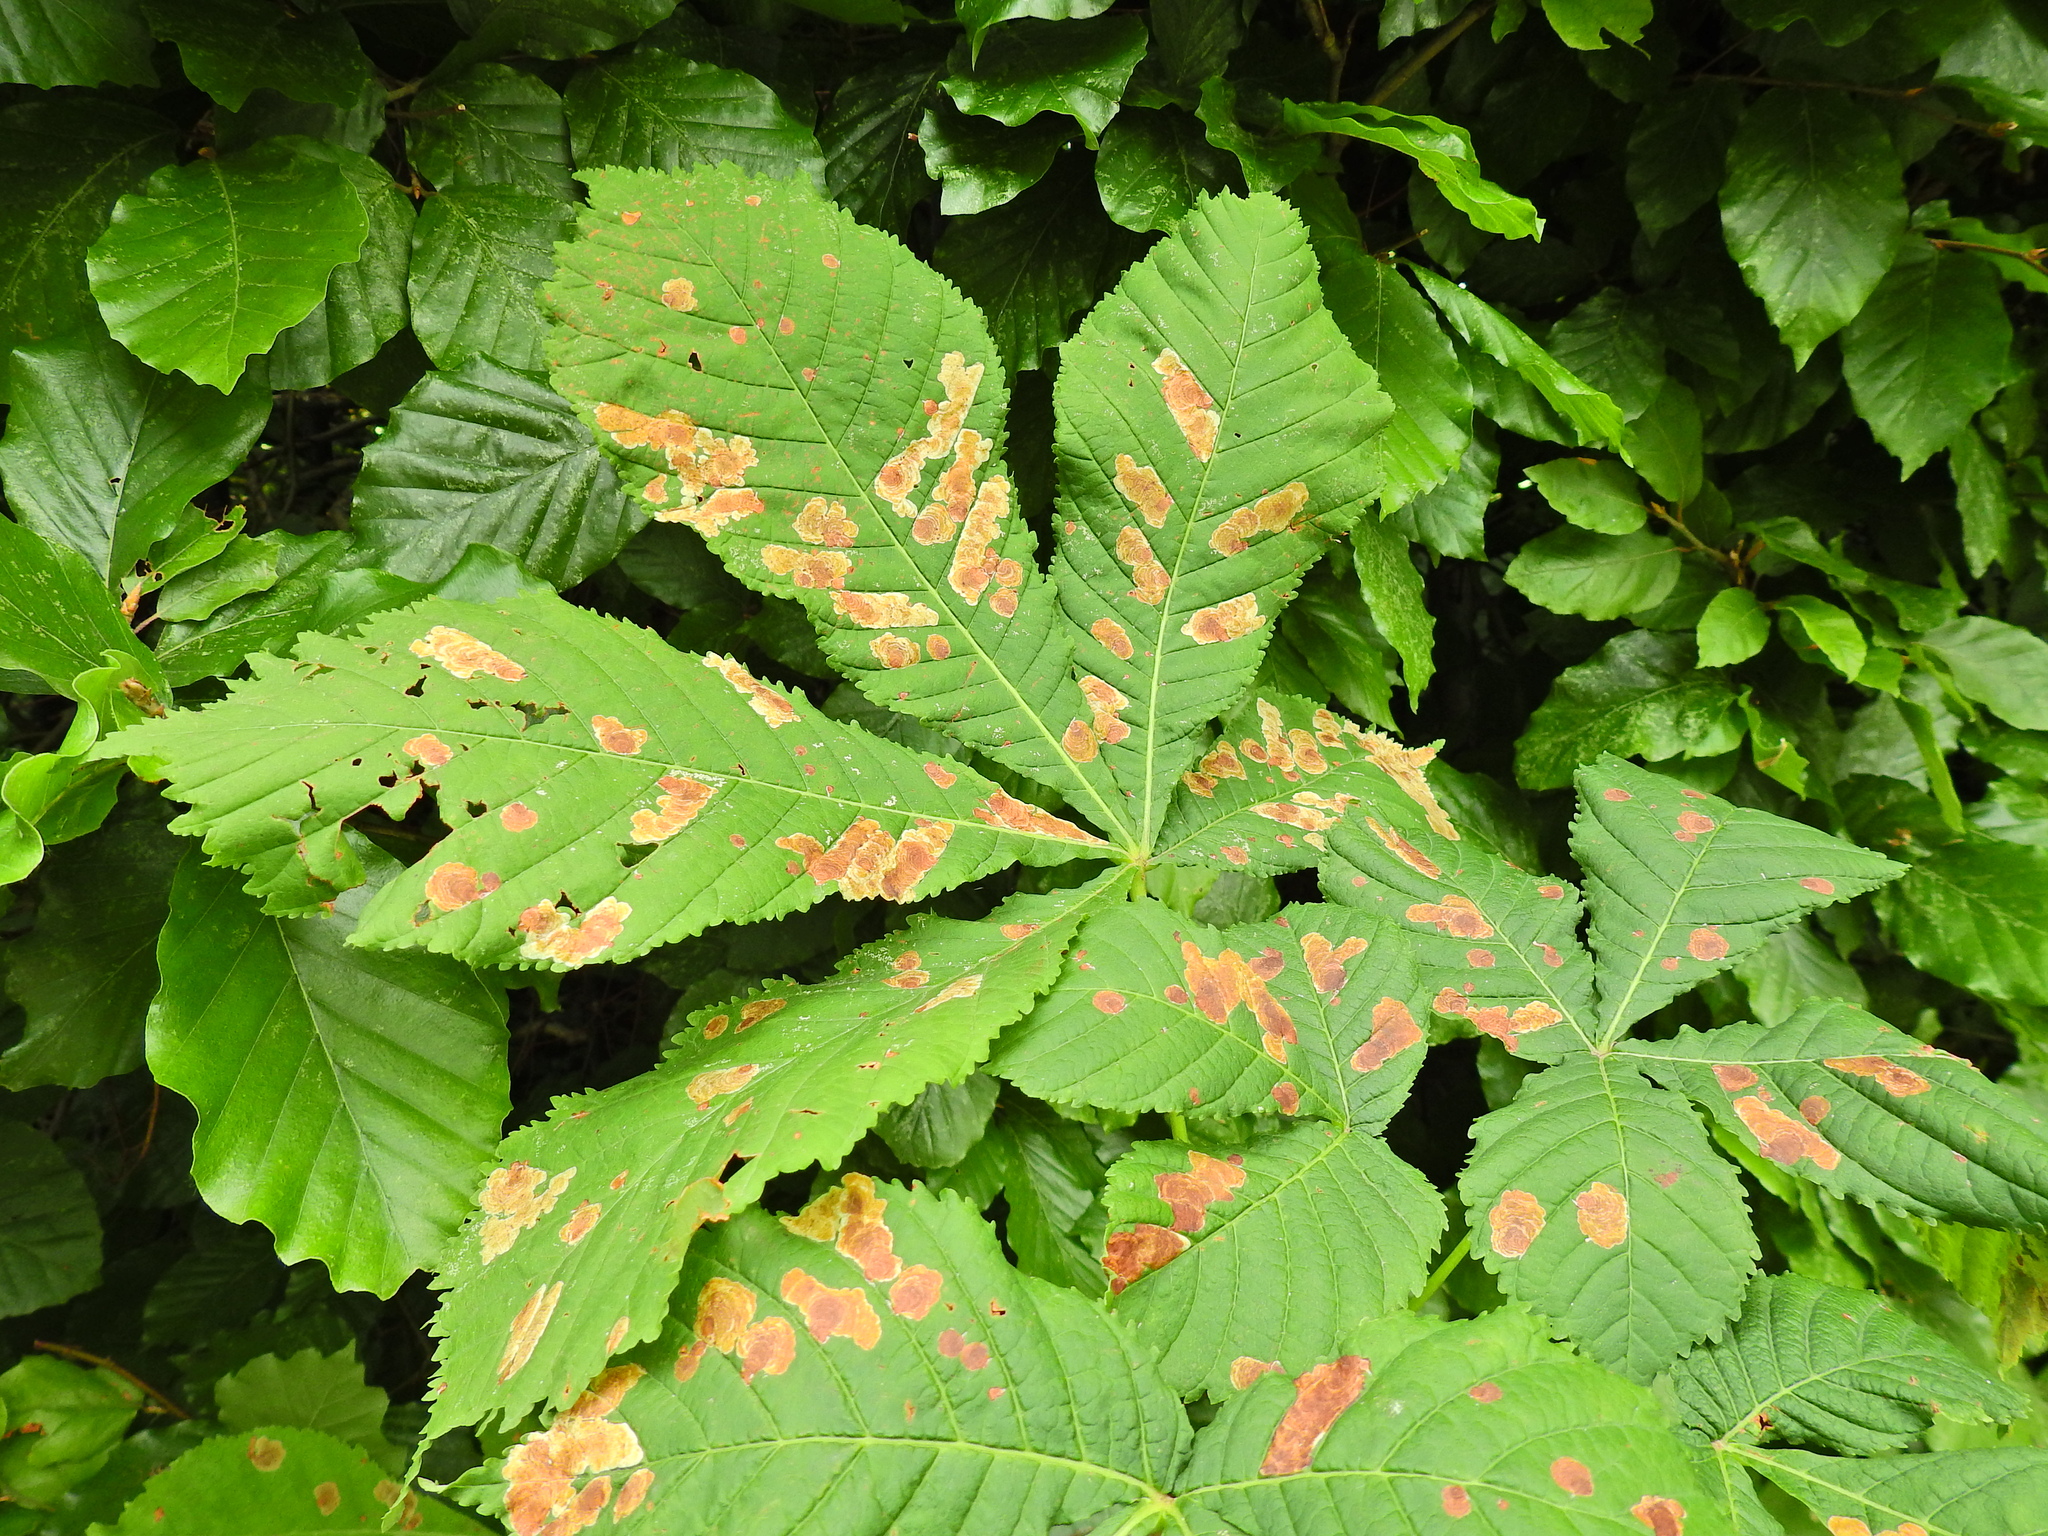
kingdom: Plantae
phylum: Tracheophyta
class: Magnoliopsida
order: Sapindales
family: Sapindaceae
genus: Aesculus
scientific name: Aesculus hippocastanum
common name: Horse-chestnut
